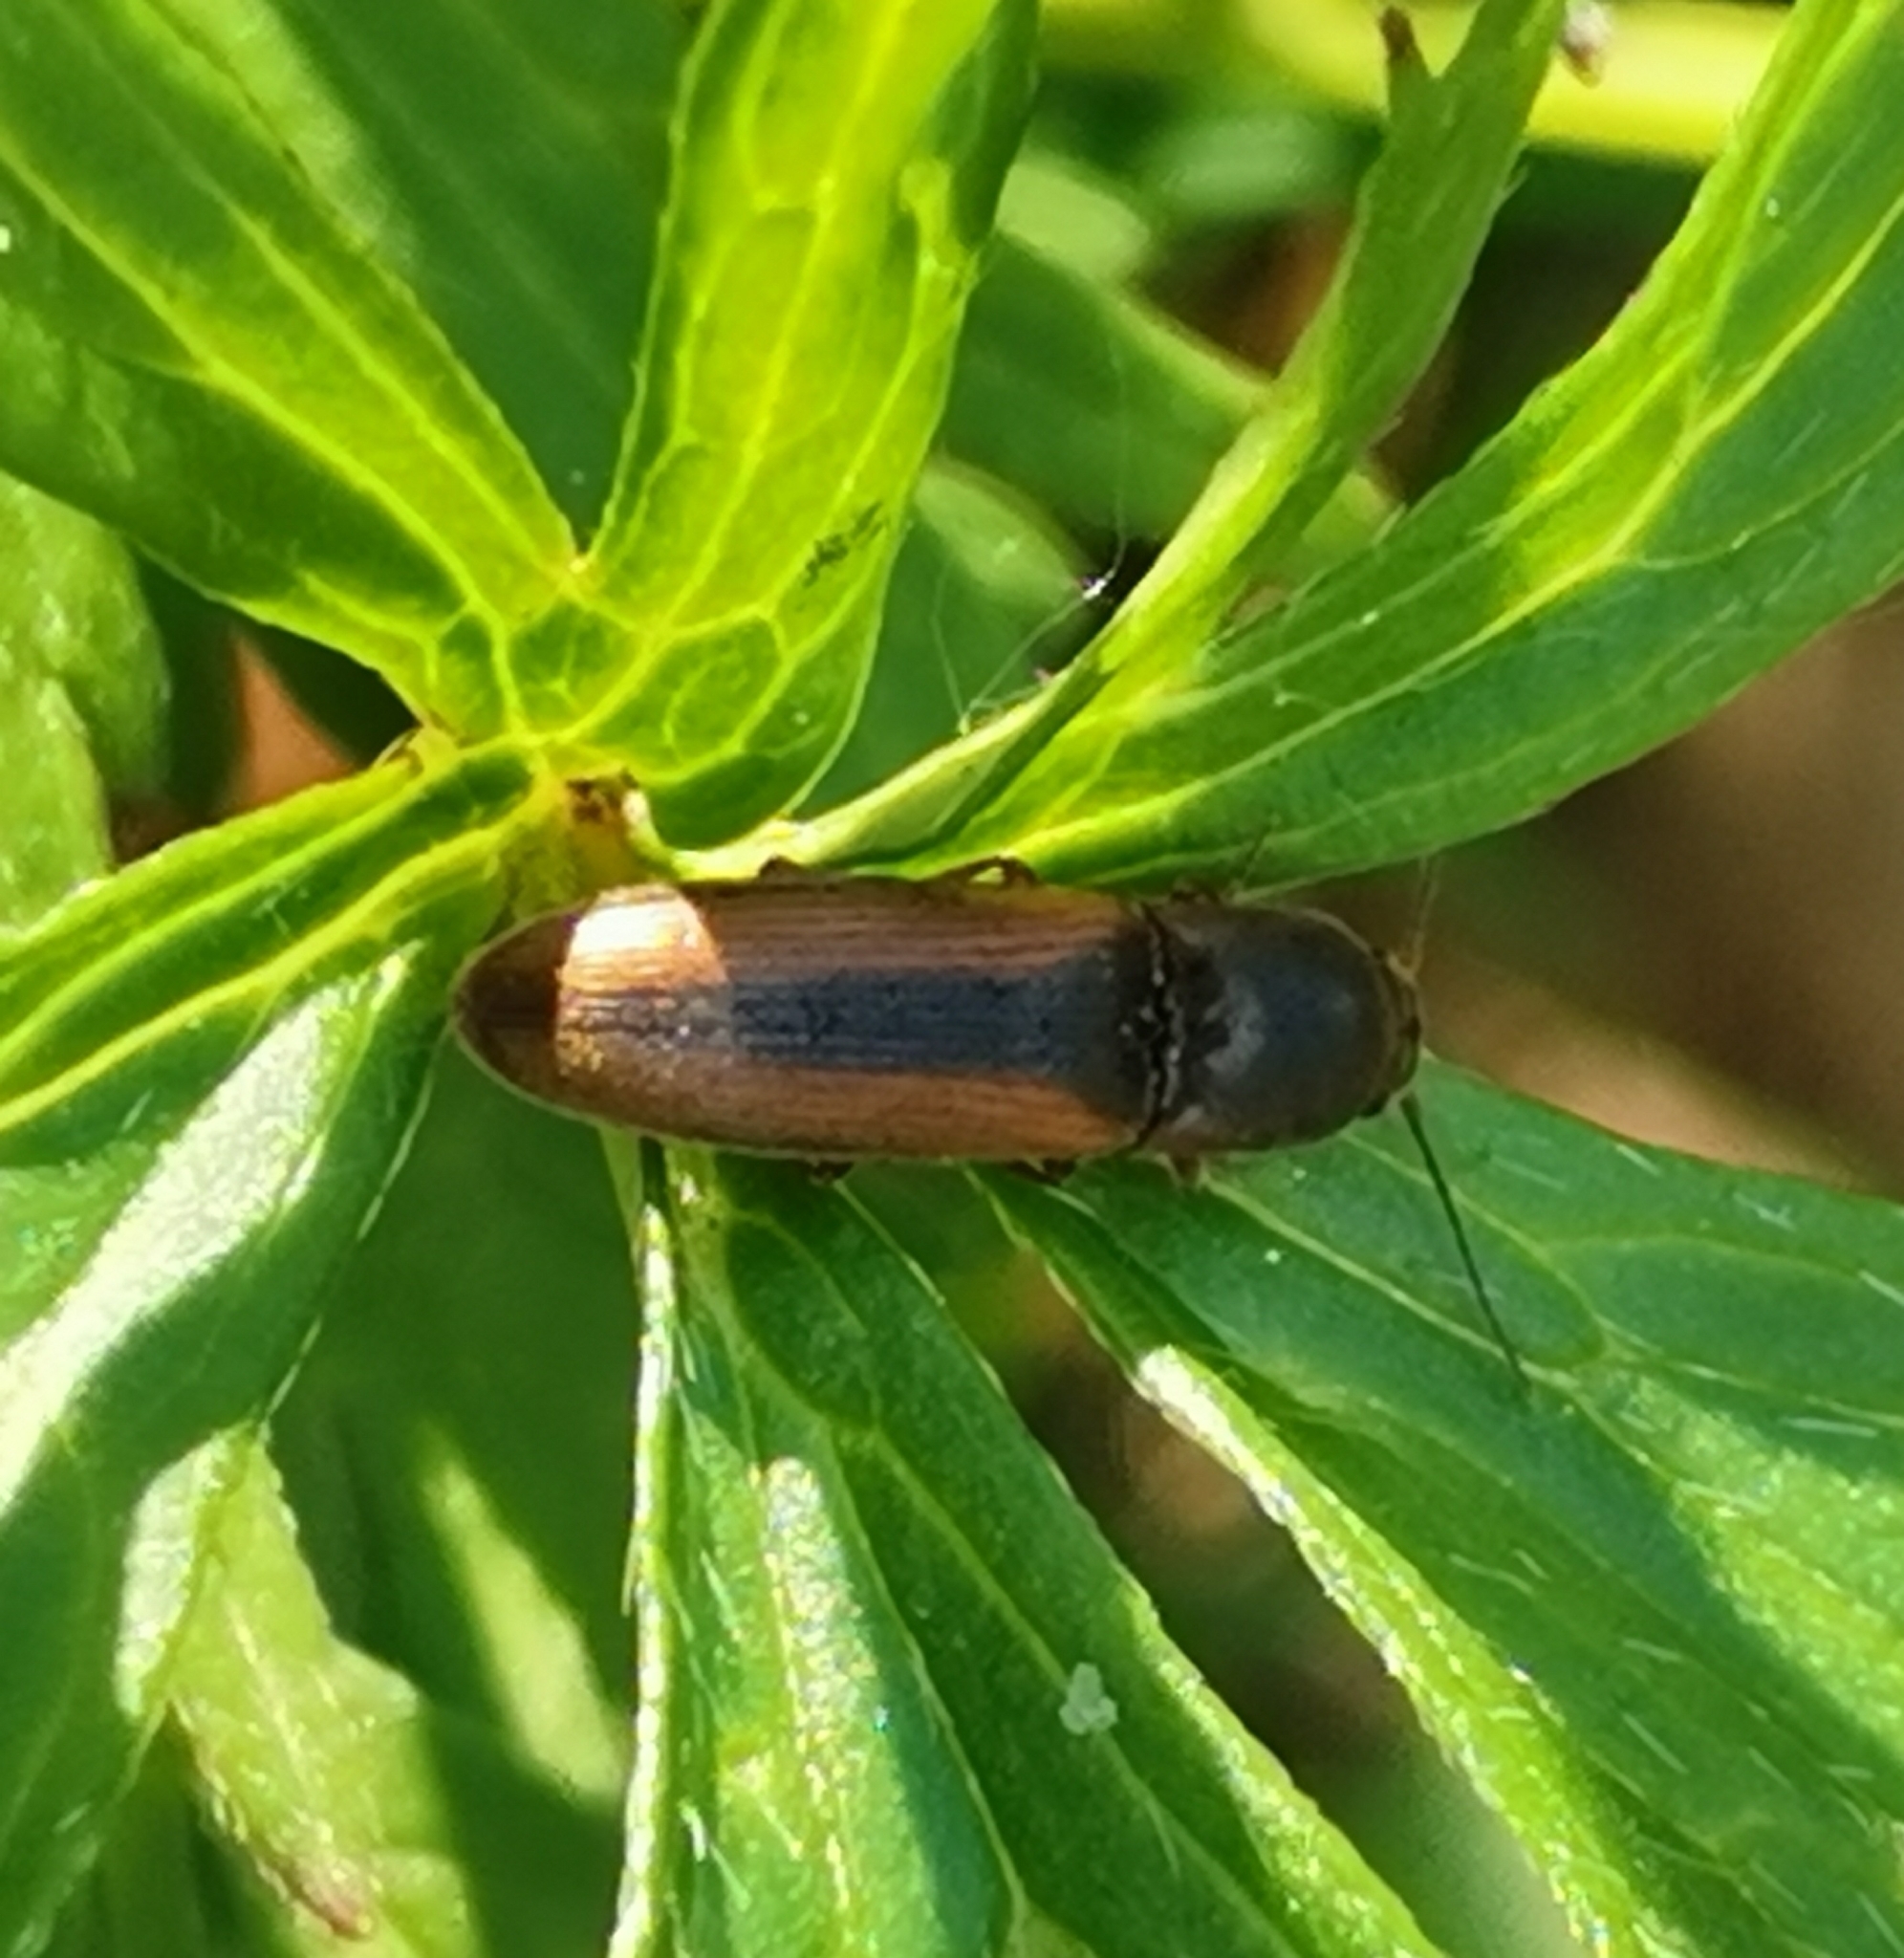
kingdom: Animalia
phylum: Arthropoda
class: Insecta
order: Coleoptera
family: Elateridae
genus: Dalopius
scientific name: Dalopius marginatus
